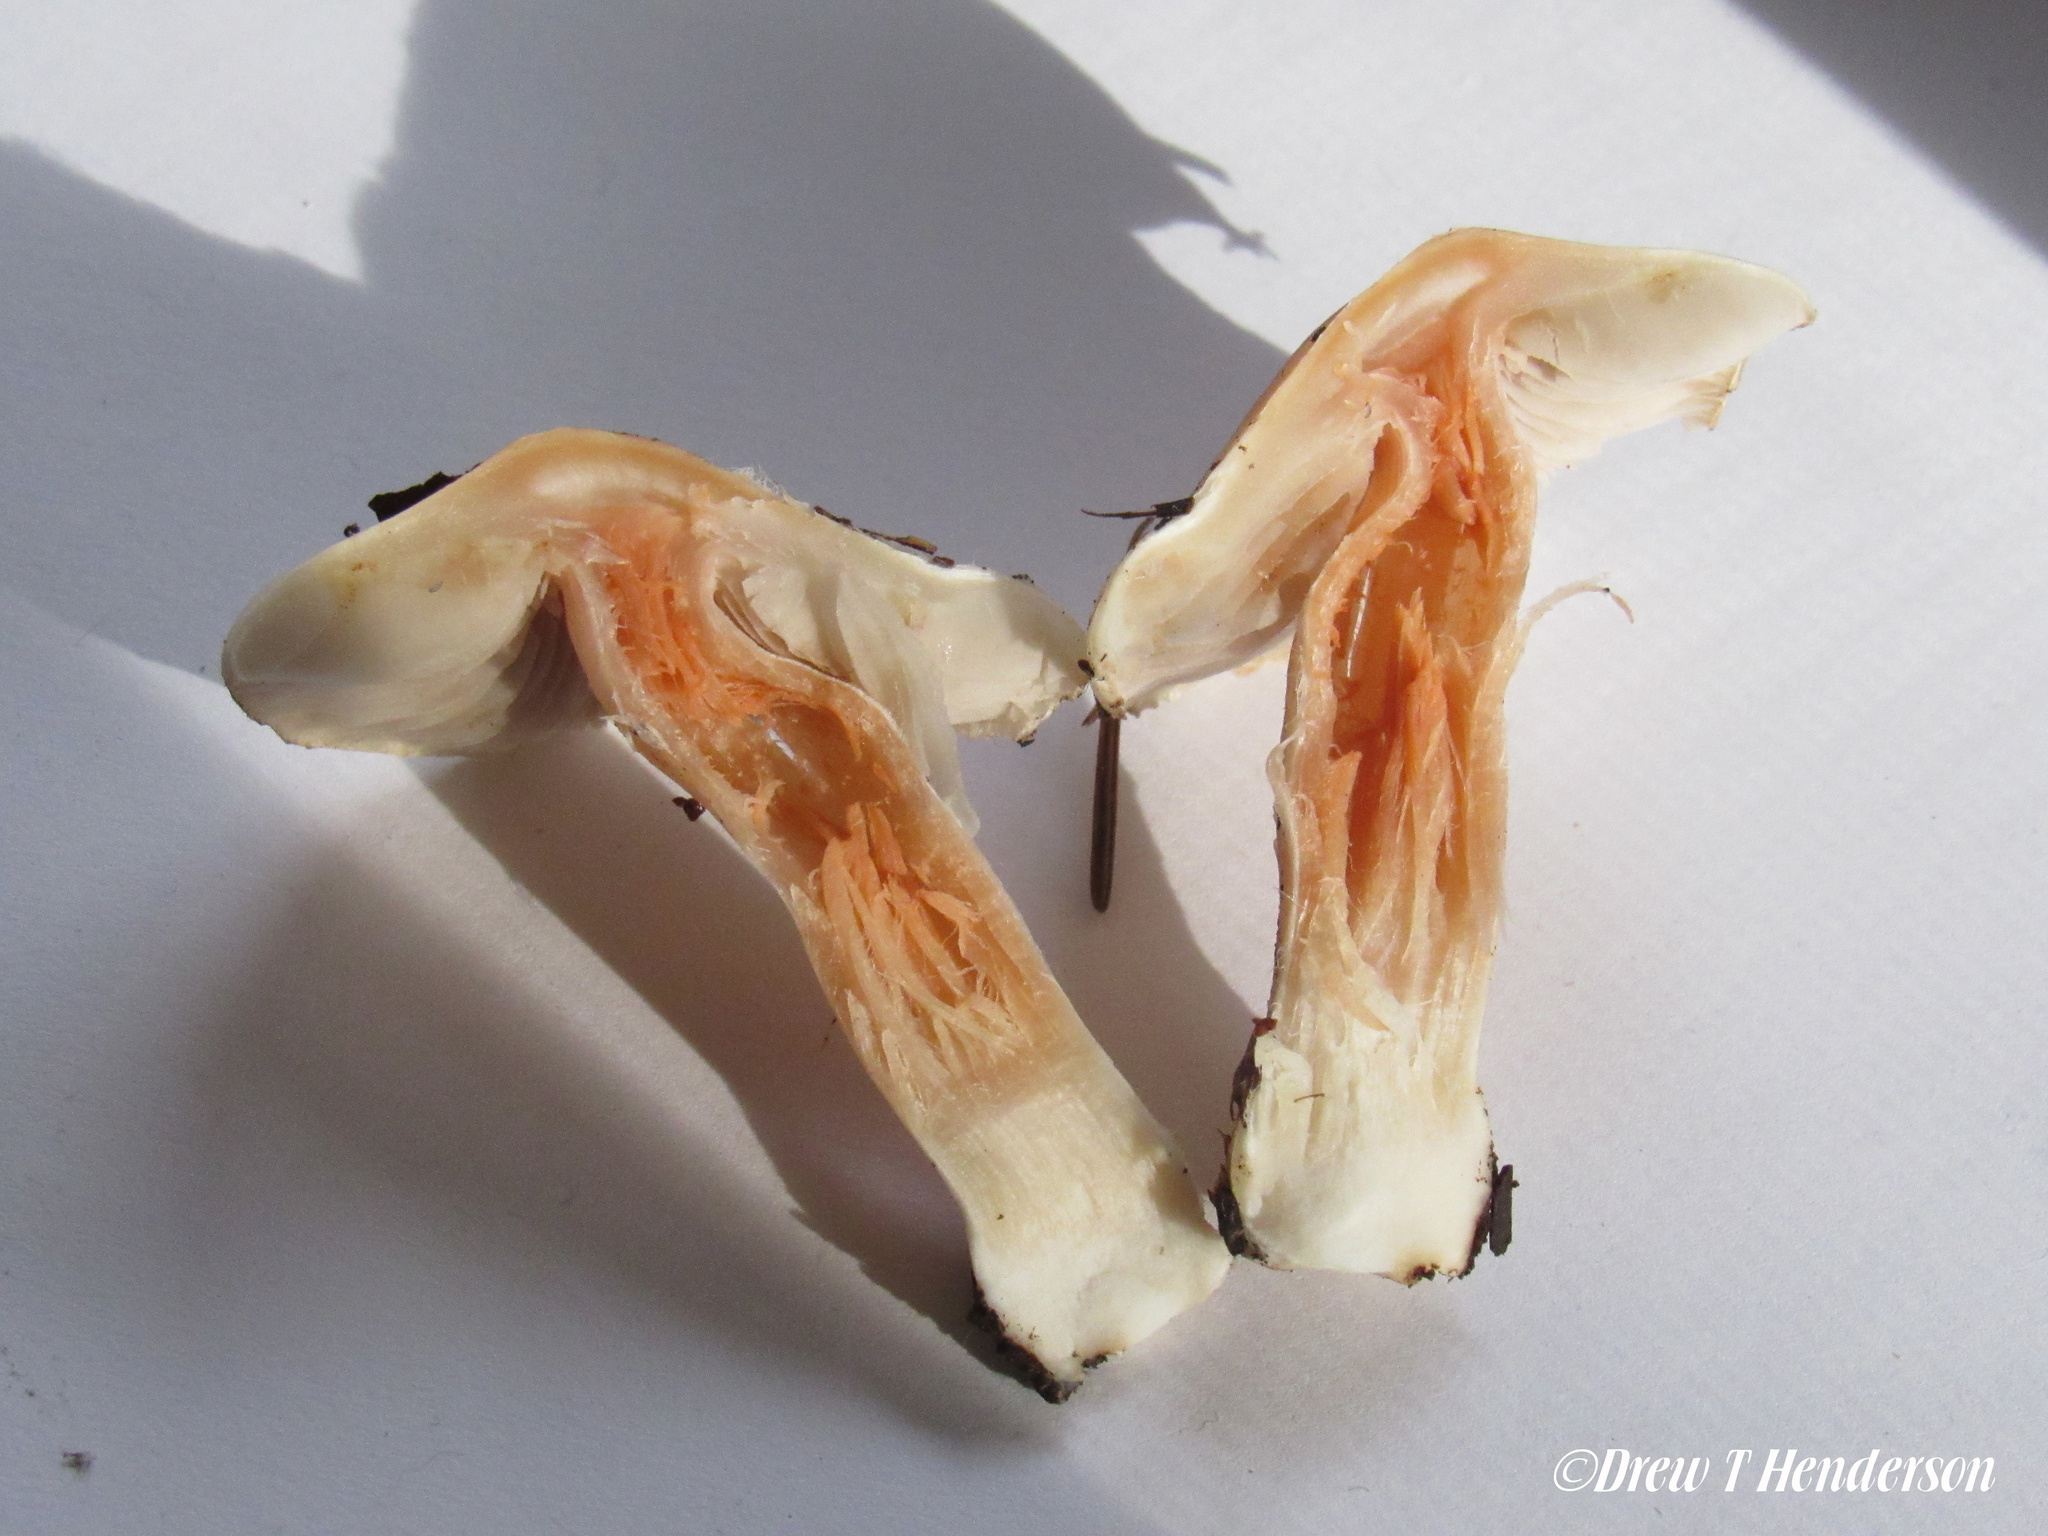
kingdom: Fungi
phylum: Basidiomycota
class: Agaricomycetes
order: Agaricales
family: Inocybaceae
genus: Inocybe
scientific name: Inocybe whitei
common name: Blushing fibrecap
